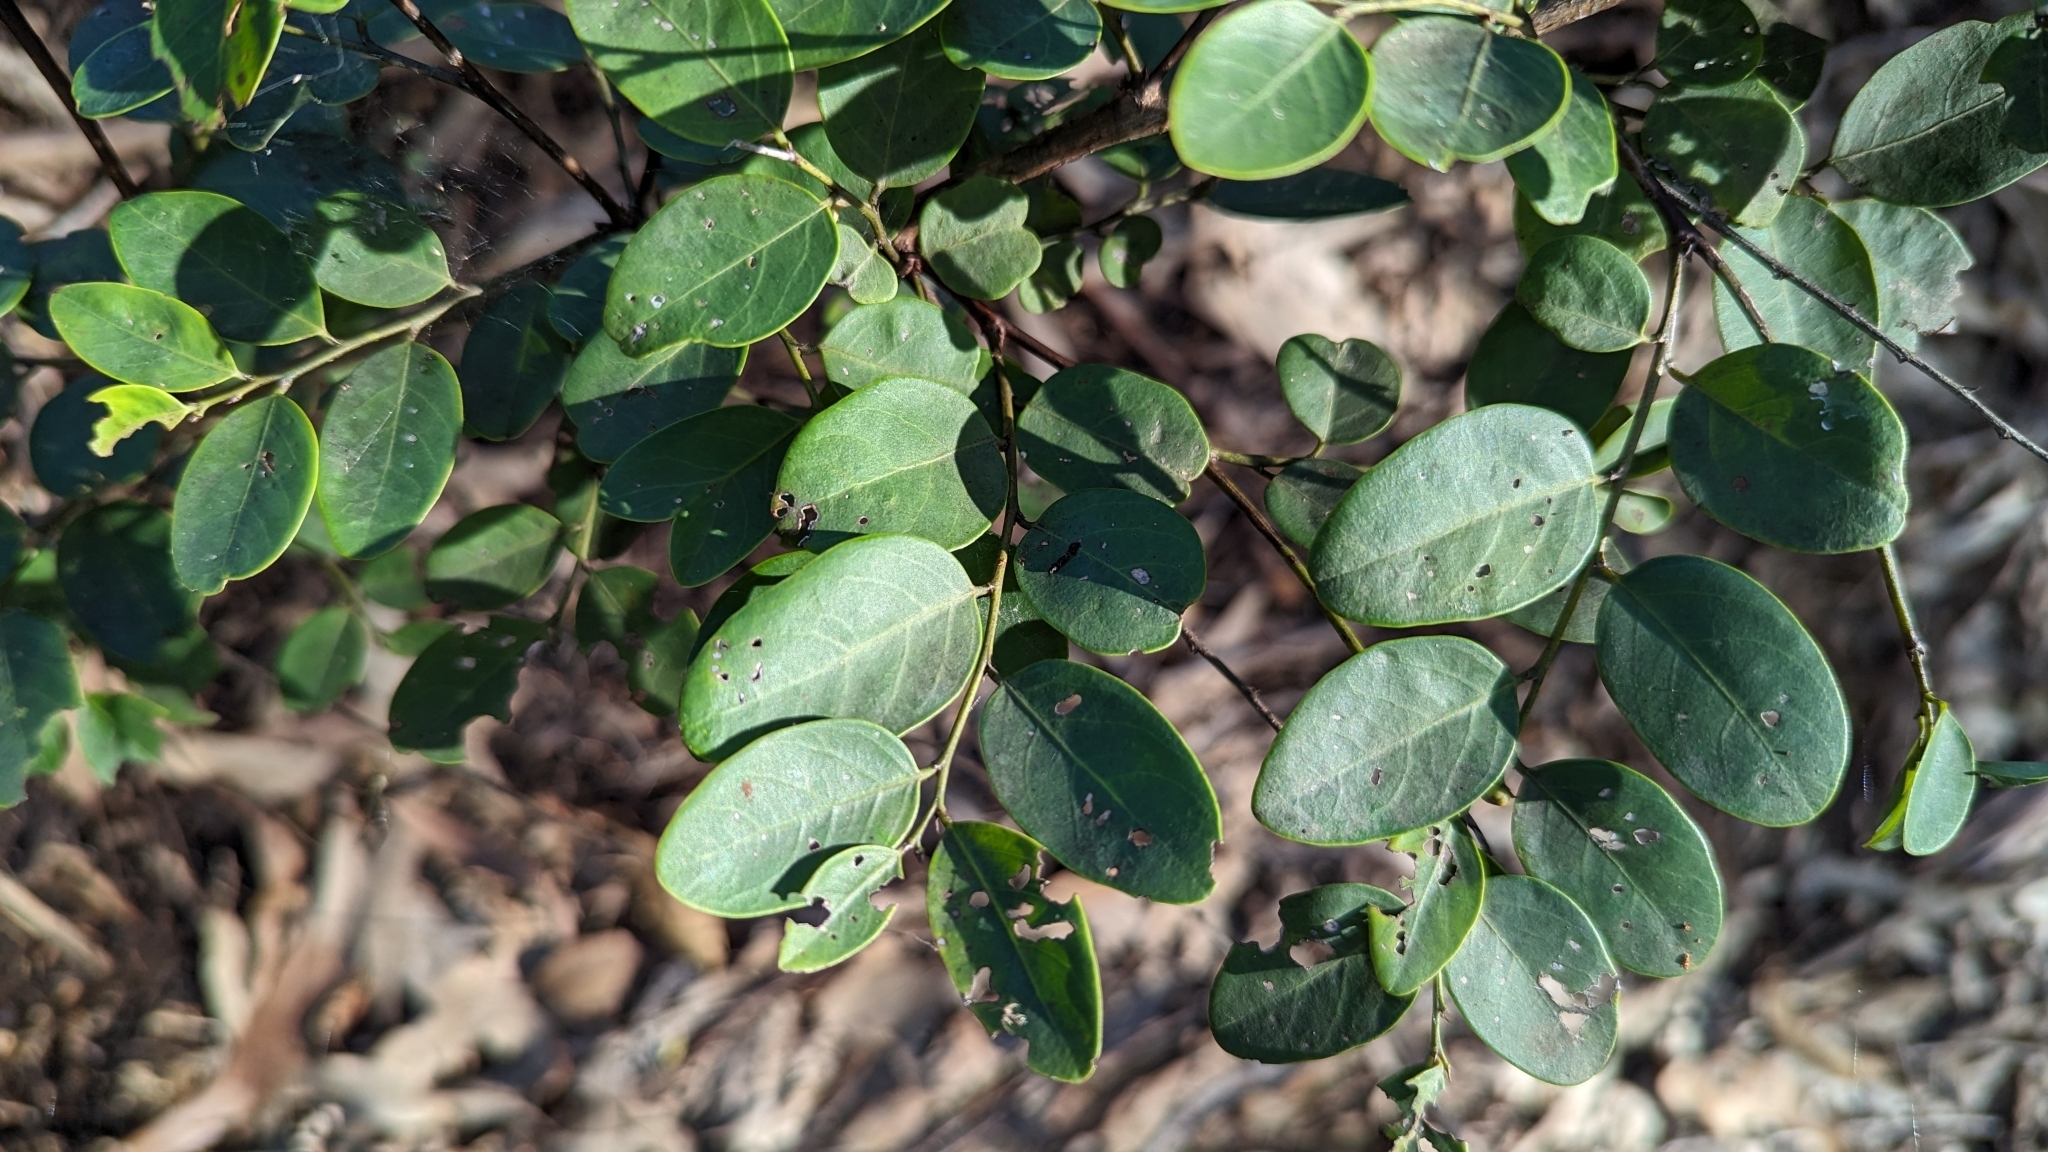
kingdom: Plantae
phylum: Tracheophyta
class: Magnoliopsida
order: Malpighiales
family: Phyllanthaceae
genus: Breynia
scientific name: Breynia oblongifolia
